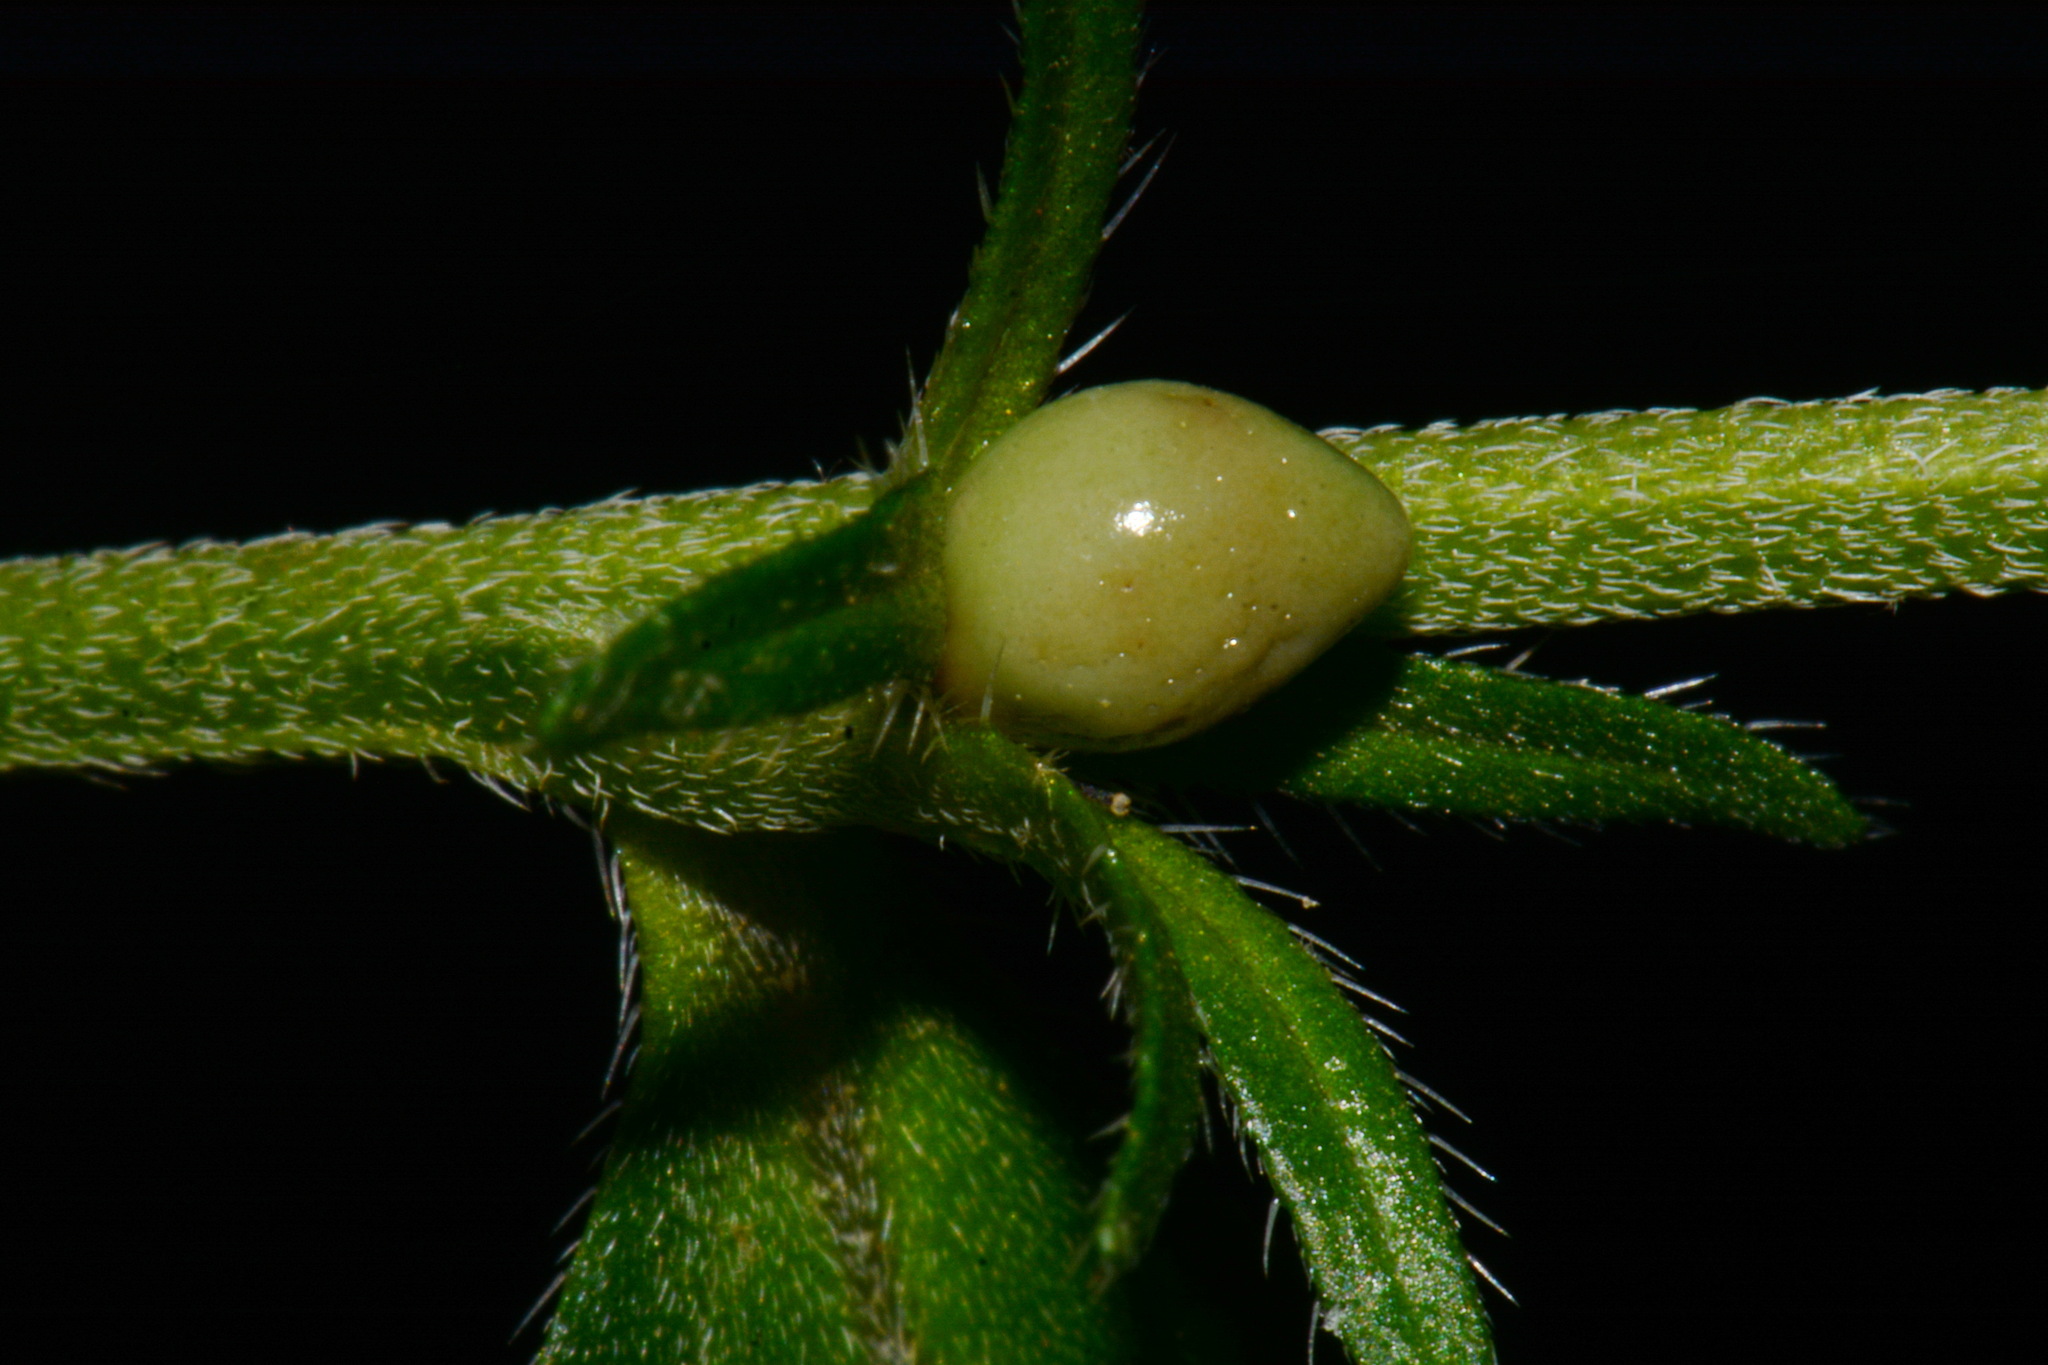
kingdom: Plantae
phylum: Tracheophyta
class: Magnoliopsida
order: Boraginales
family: Boraginaceae
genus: Lithospermum
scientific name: Lithospermum latifolium
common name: American gromwell
